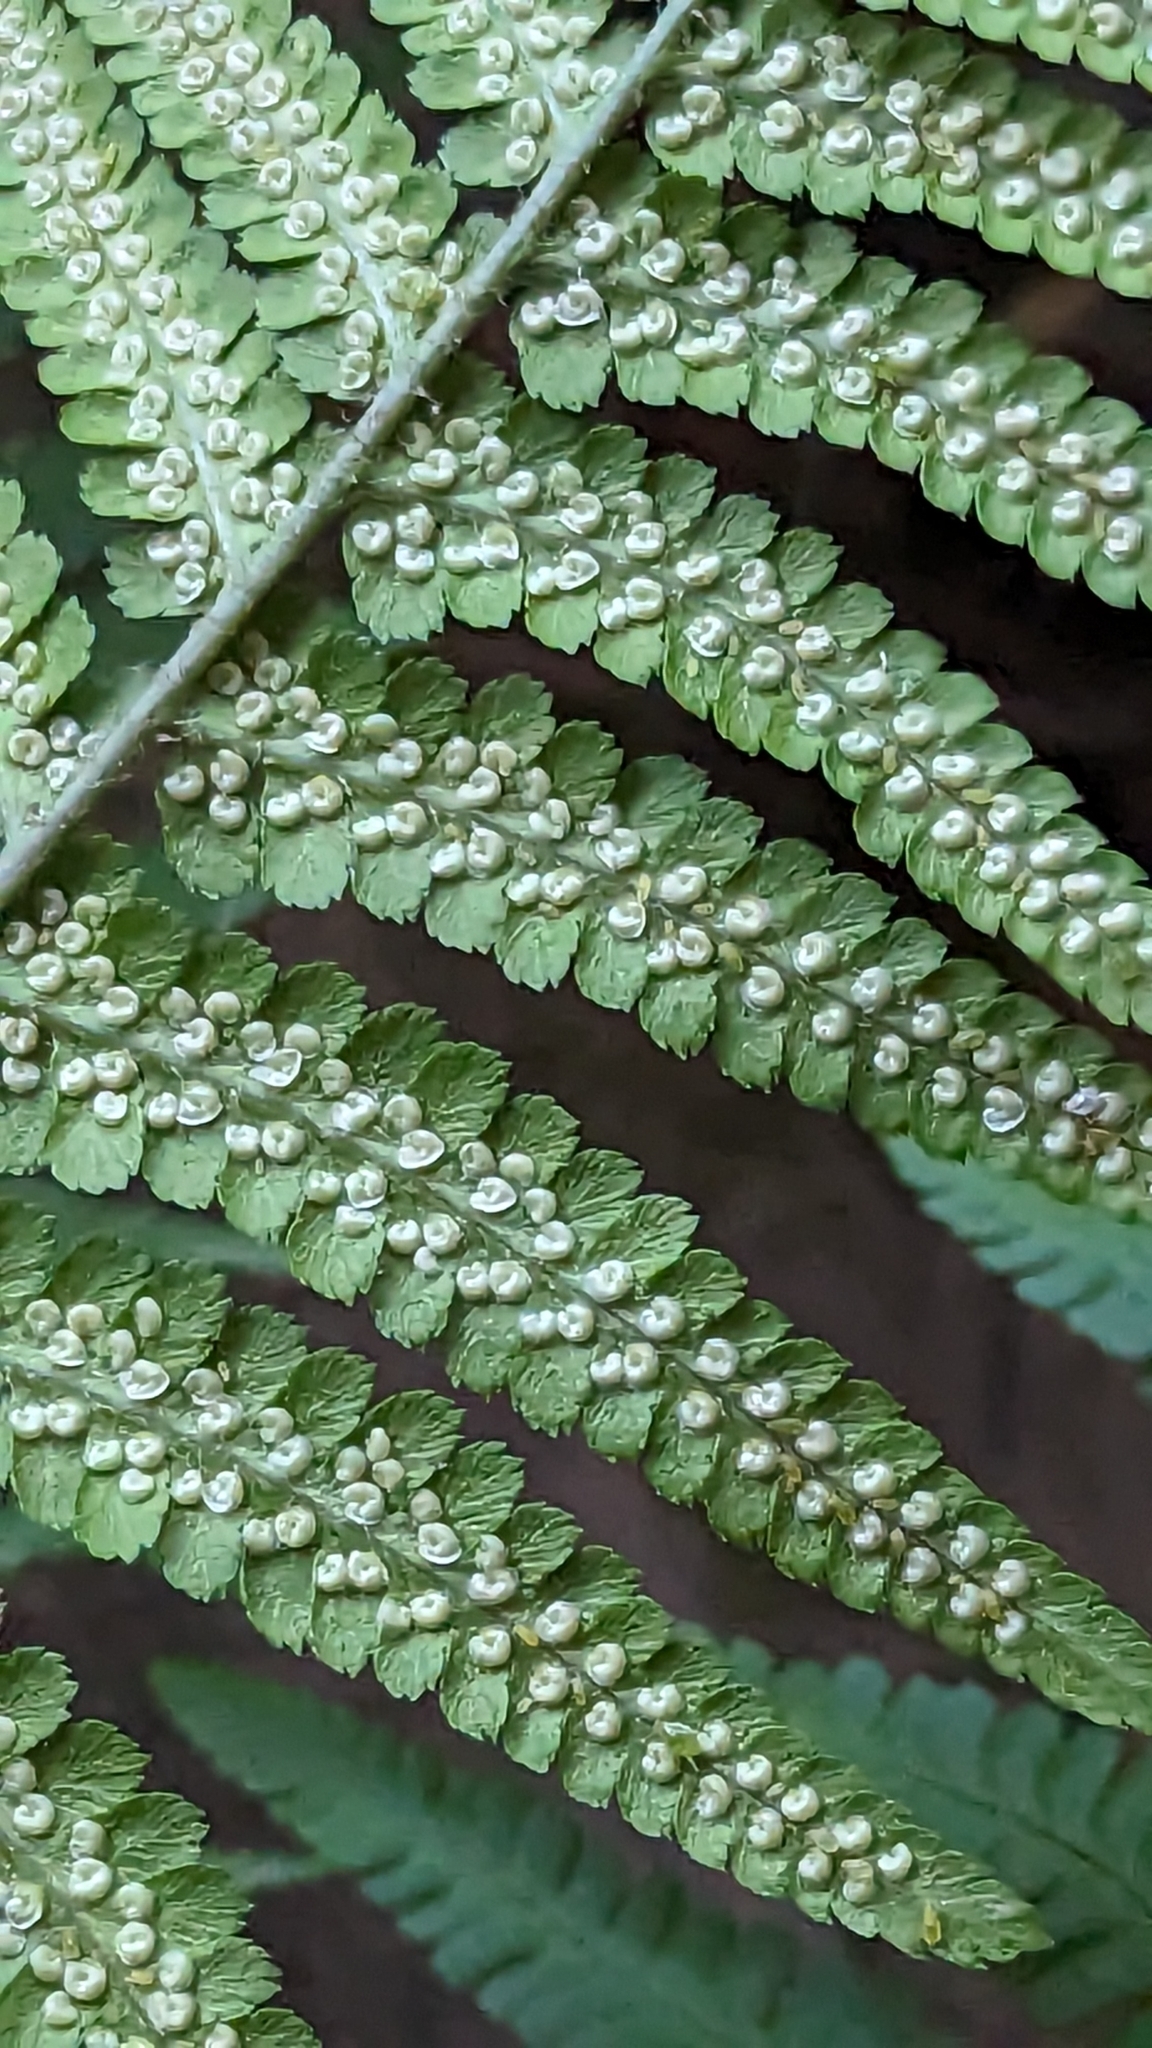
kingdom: Plantae
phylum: Tracheophyta
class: Polypodiopsida
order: Polypodiales
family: Dryopteridaceae
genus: Dryopteris
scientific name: Dryopteris filix-mas
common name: Male fern
